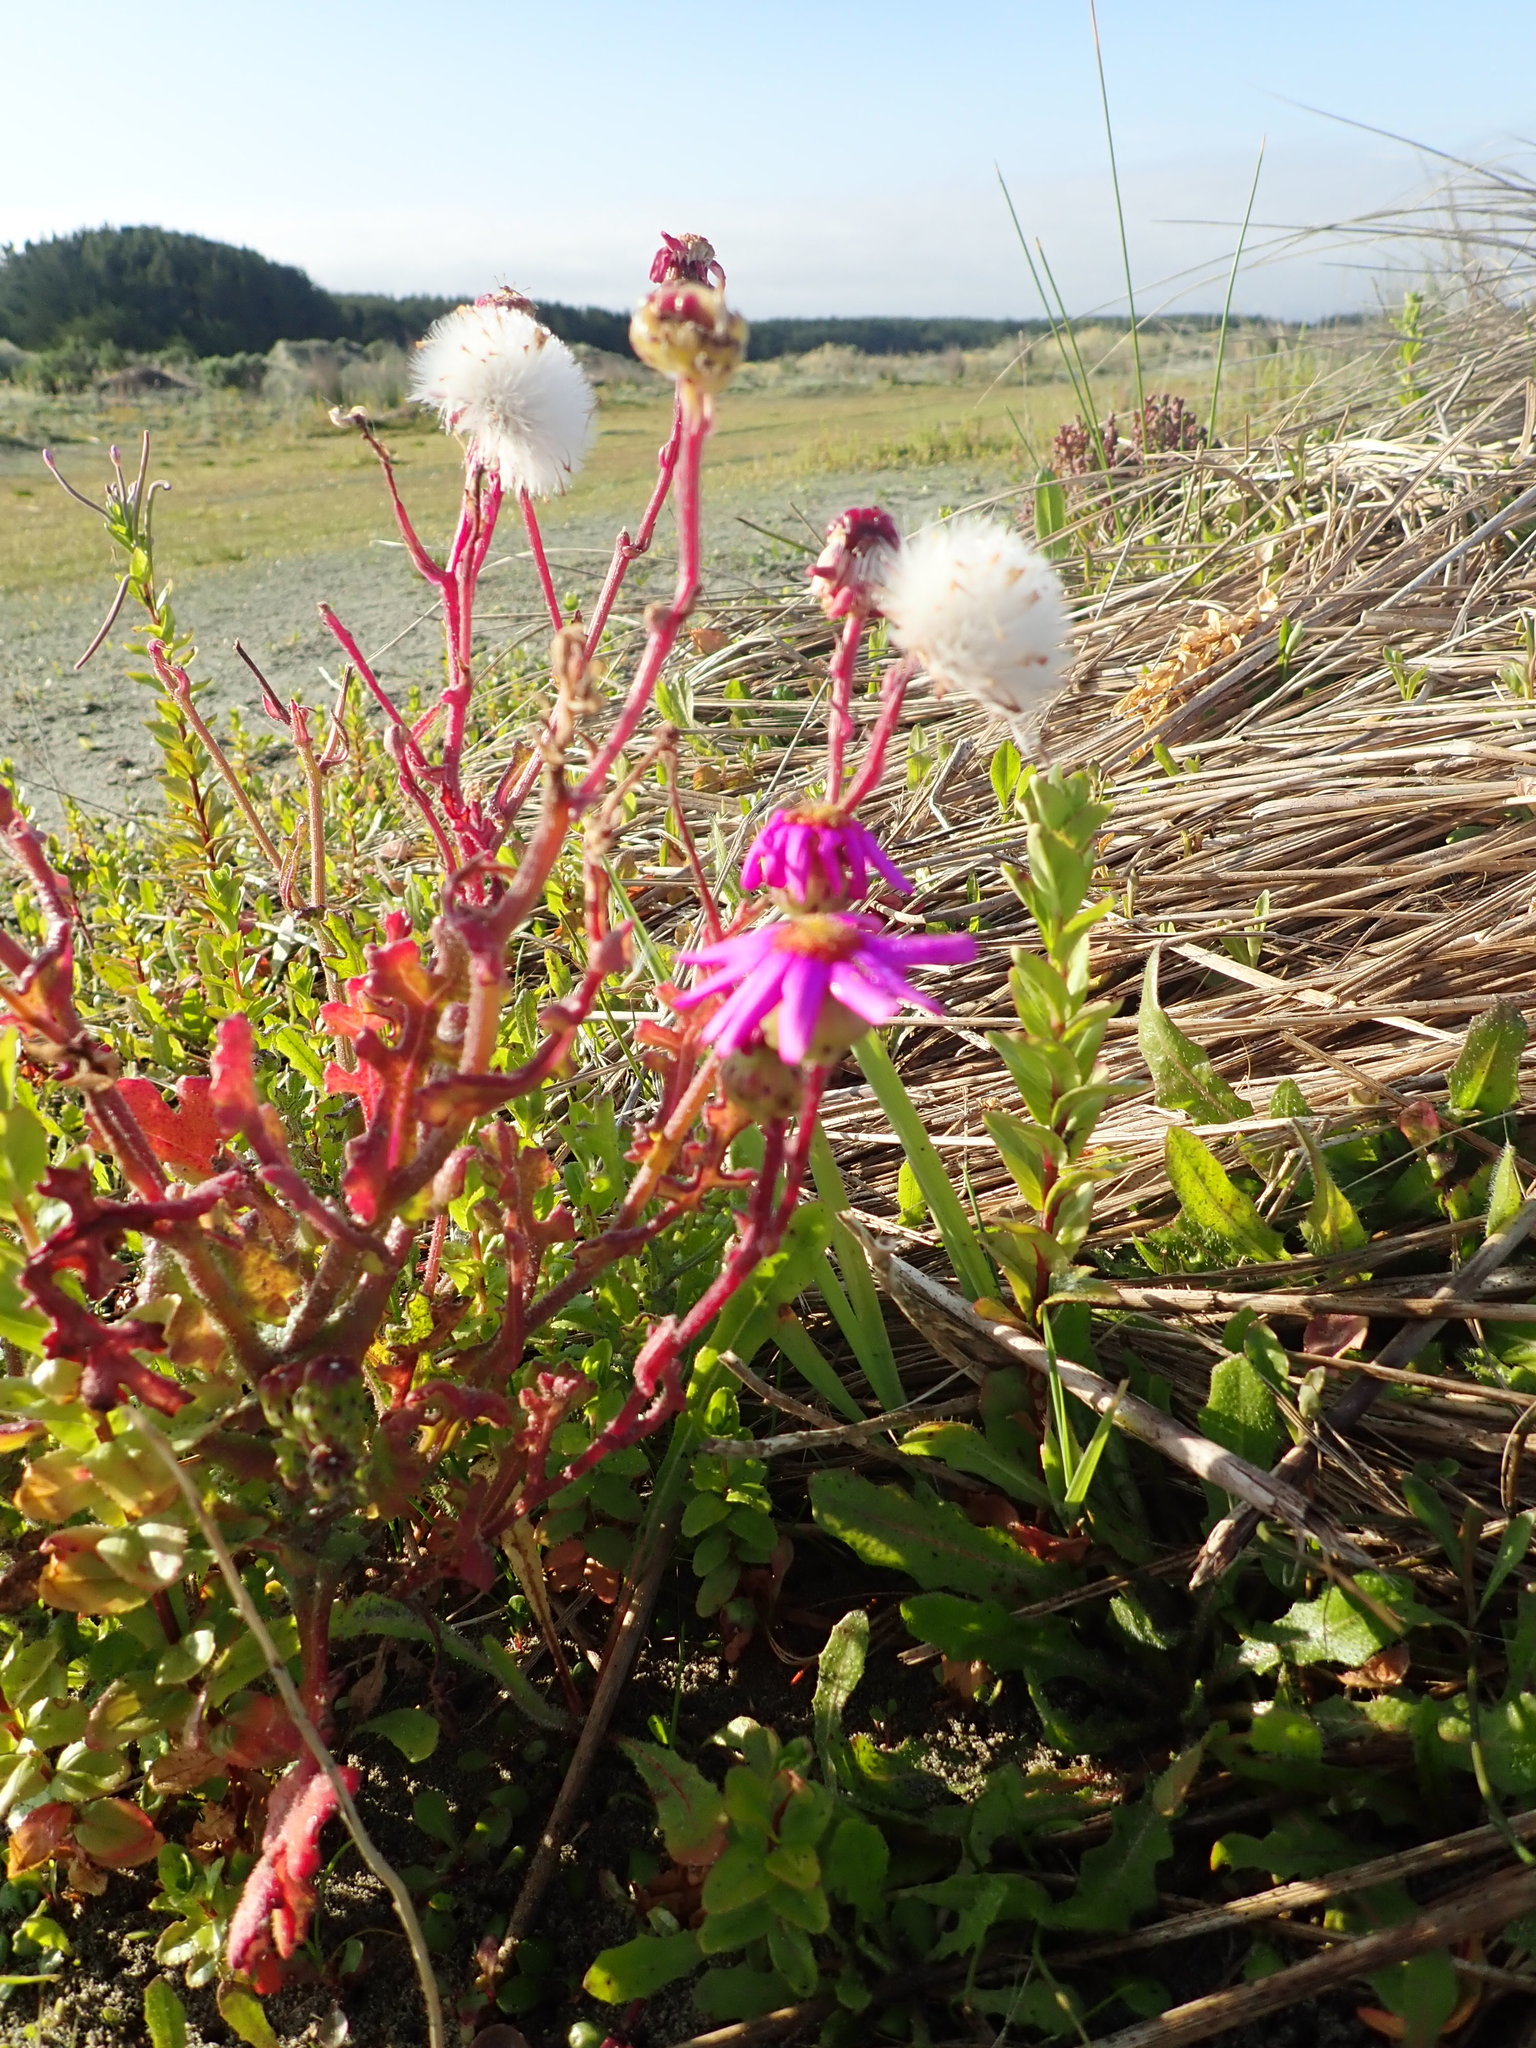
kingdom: Plantae
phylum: Tracheophyta
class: Magnoliopsida
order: Asterales
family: Asteraceae
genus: Senecio
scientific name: Senecio elegans
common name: Purple groundsel
